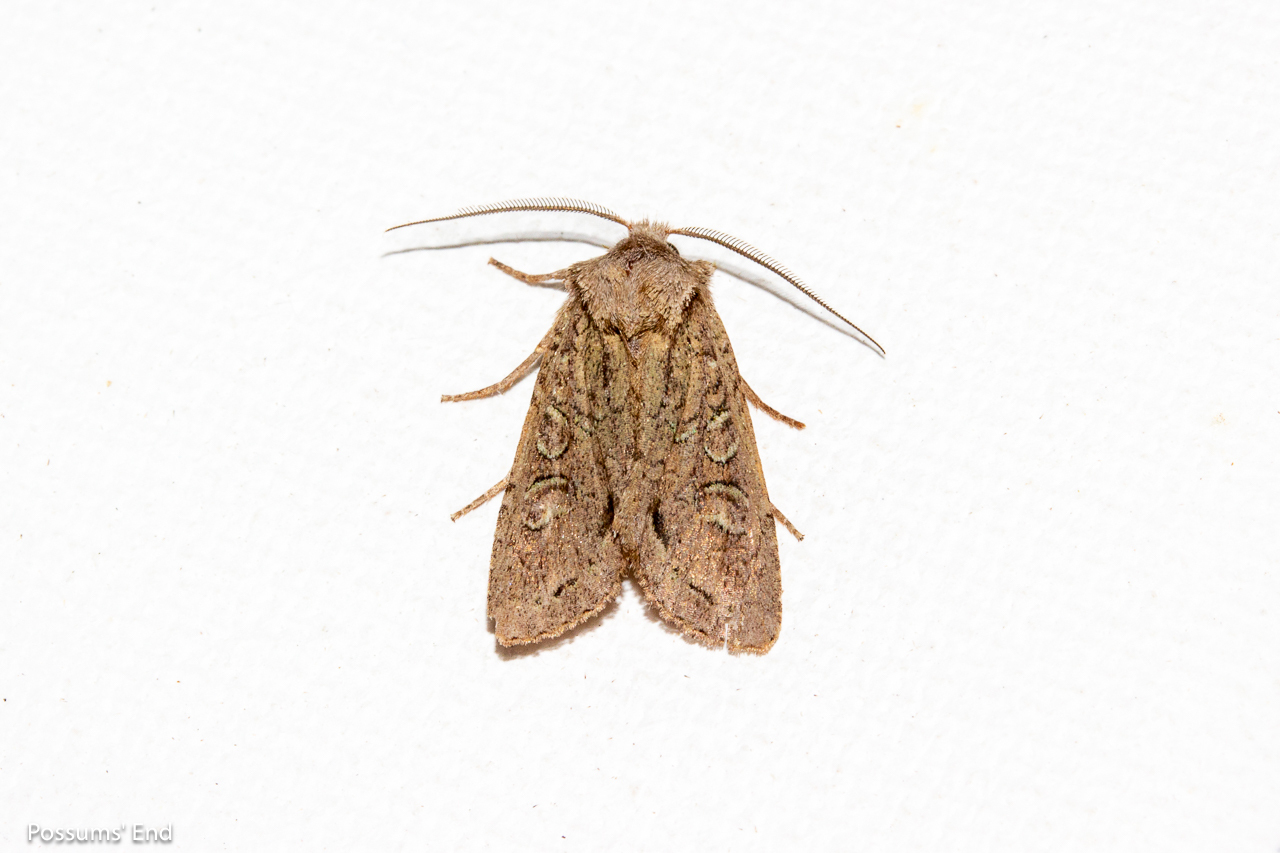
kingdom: Animalia
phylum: Arthropoda
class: Insecta
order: Lepidoptera
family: Noctuidae
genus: Ichneutica
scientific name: Ichneutica skelloni
